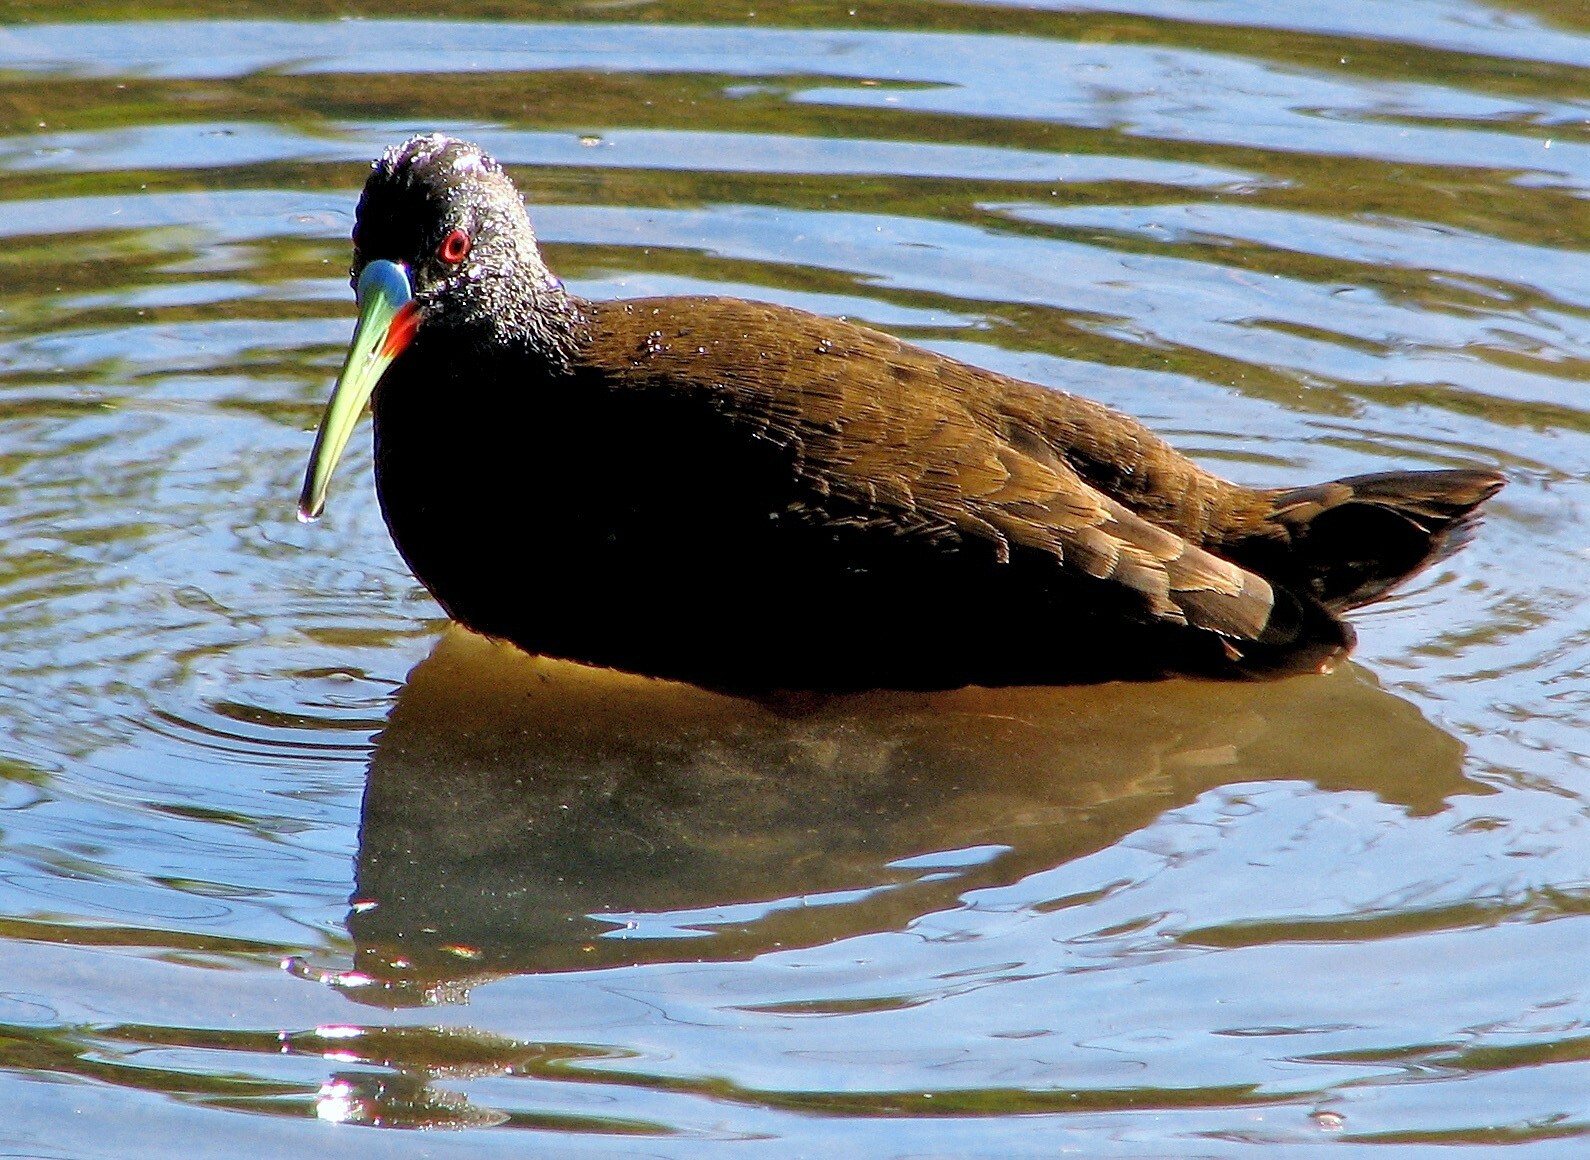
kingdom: Animalia
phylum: Chordata
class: Aves
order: Gruiformes
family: Rallidae
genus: Pardirallus
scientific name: Pardirallus sanguinolentus
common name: Plumbeous rail
